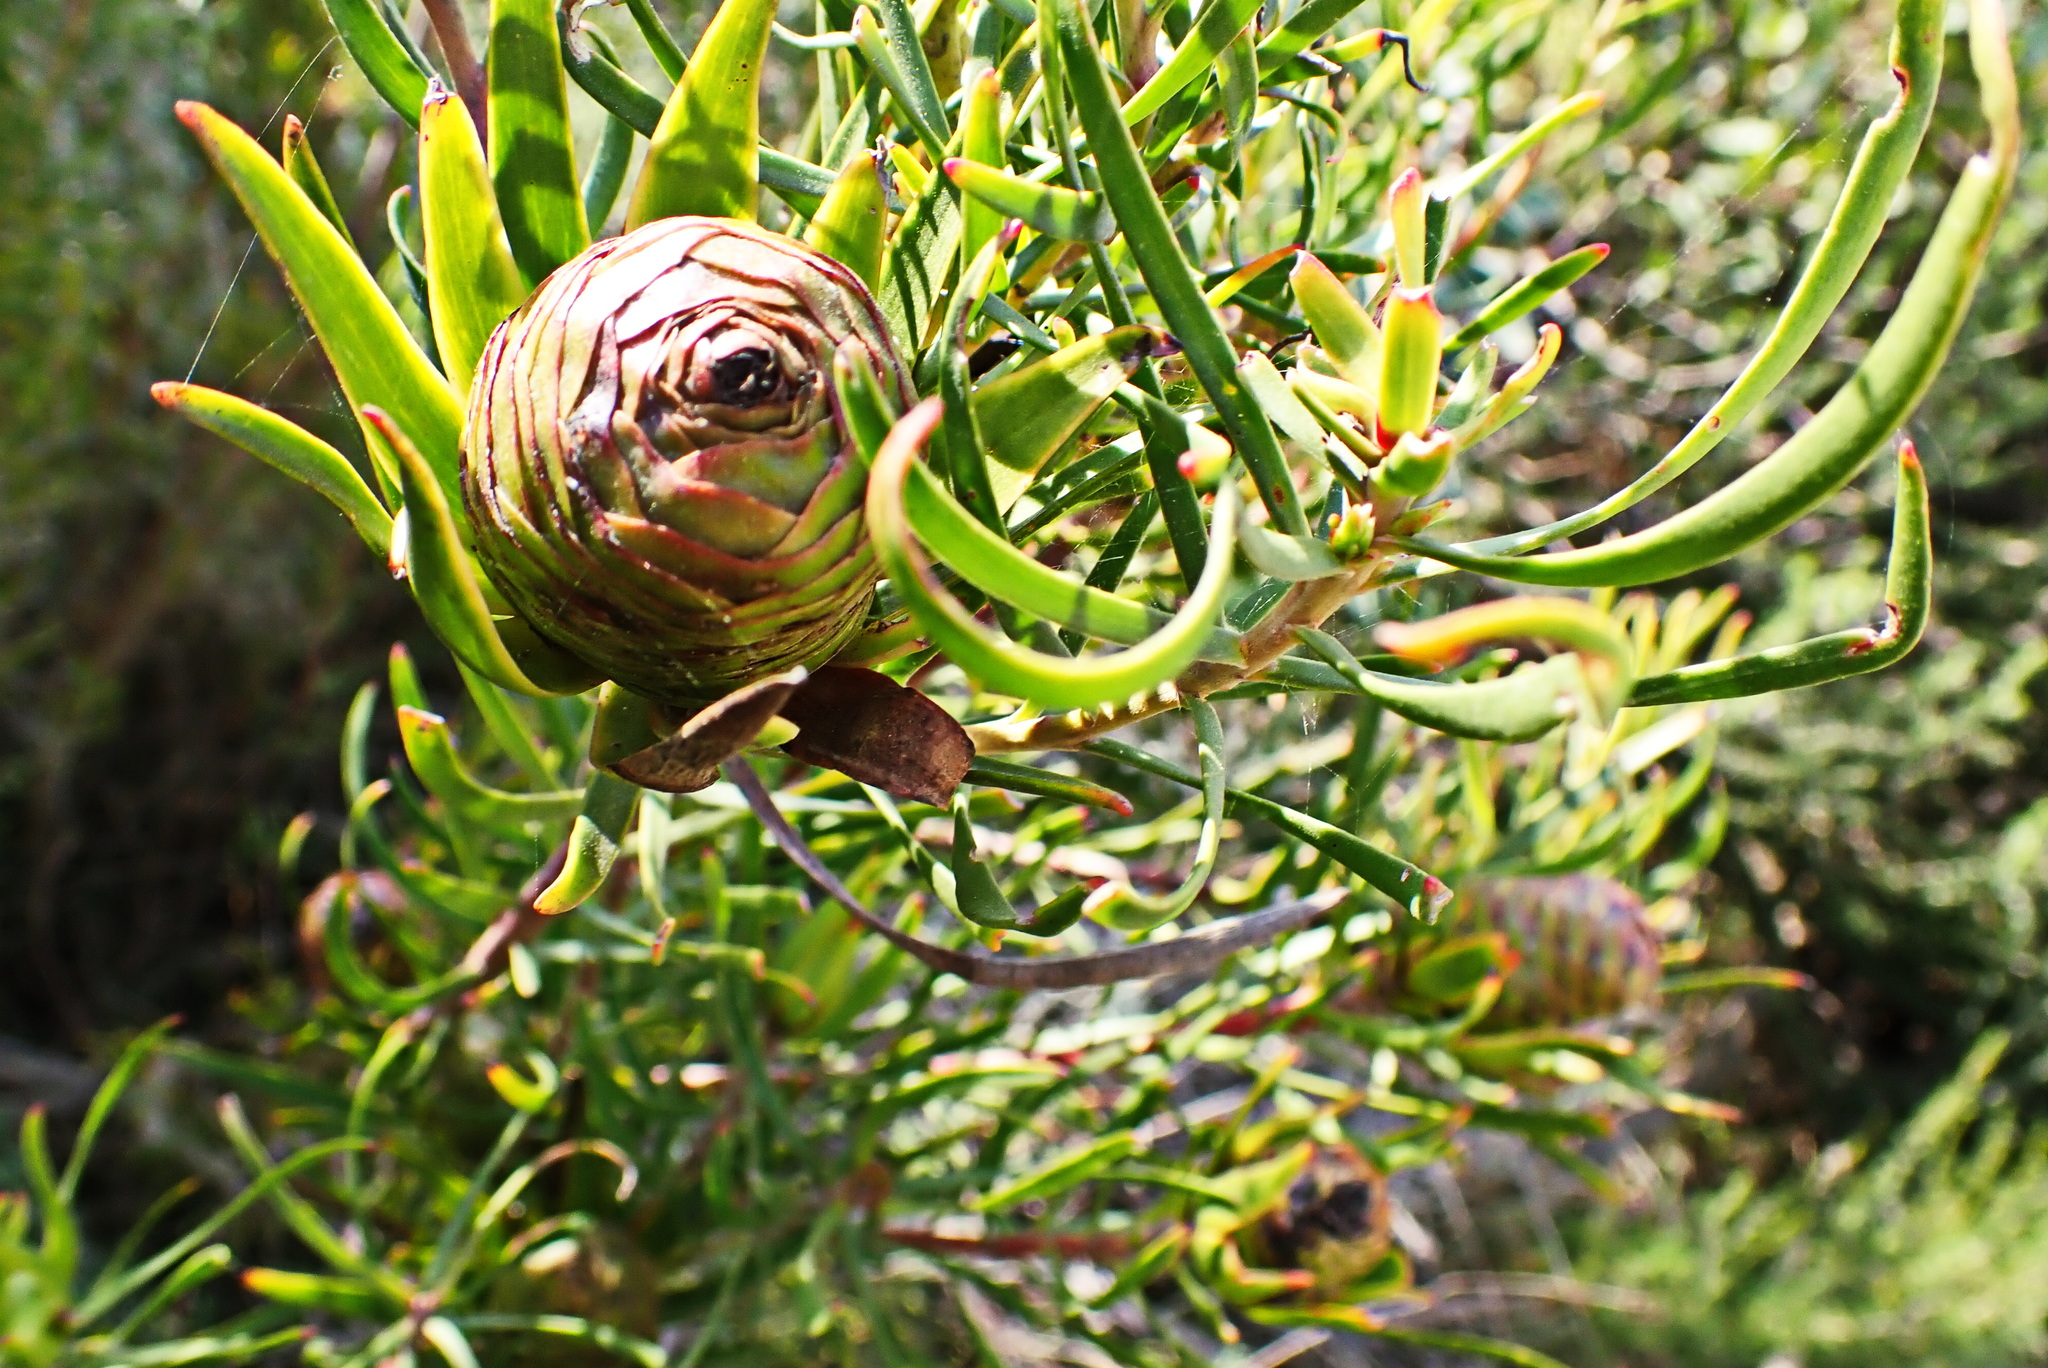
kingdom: Plantae
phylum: Tracheophyta
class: Magnoliopsida
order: Proteales
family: Proteaceae
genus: Leucadendron
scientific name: Leucadendron spissifolium
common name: Spear-leaf conebush
